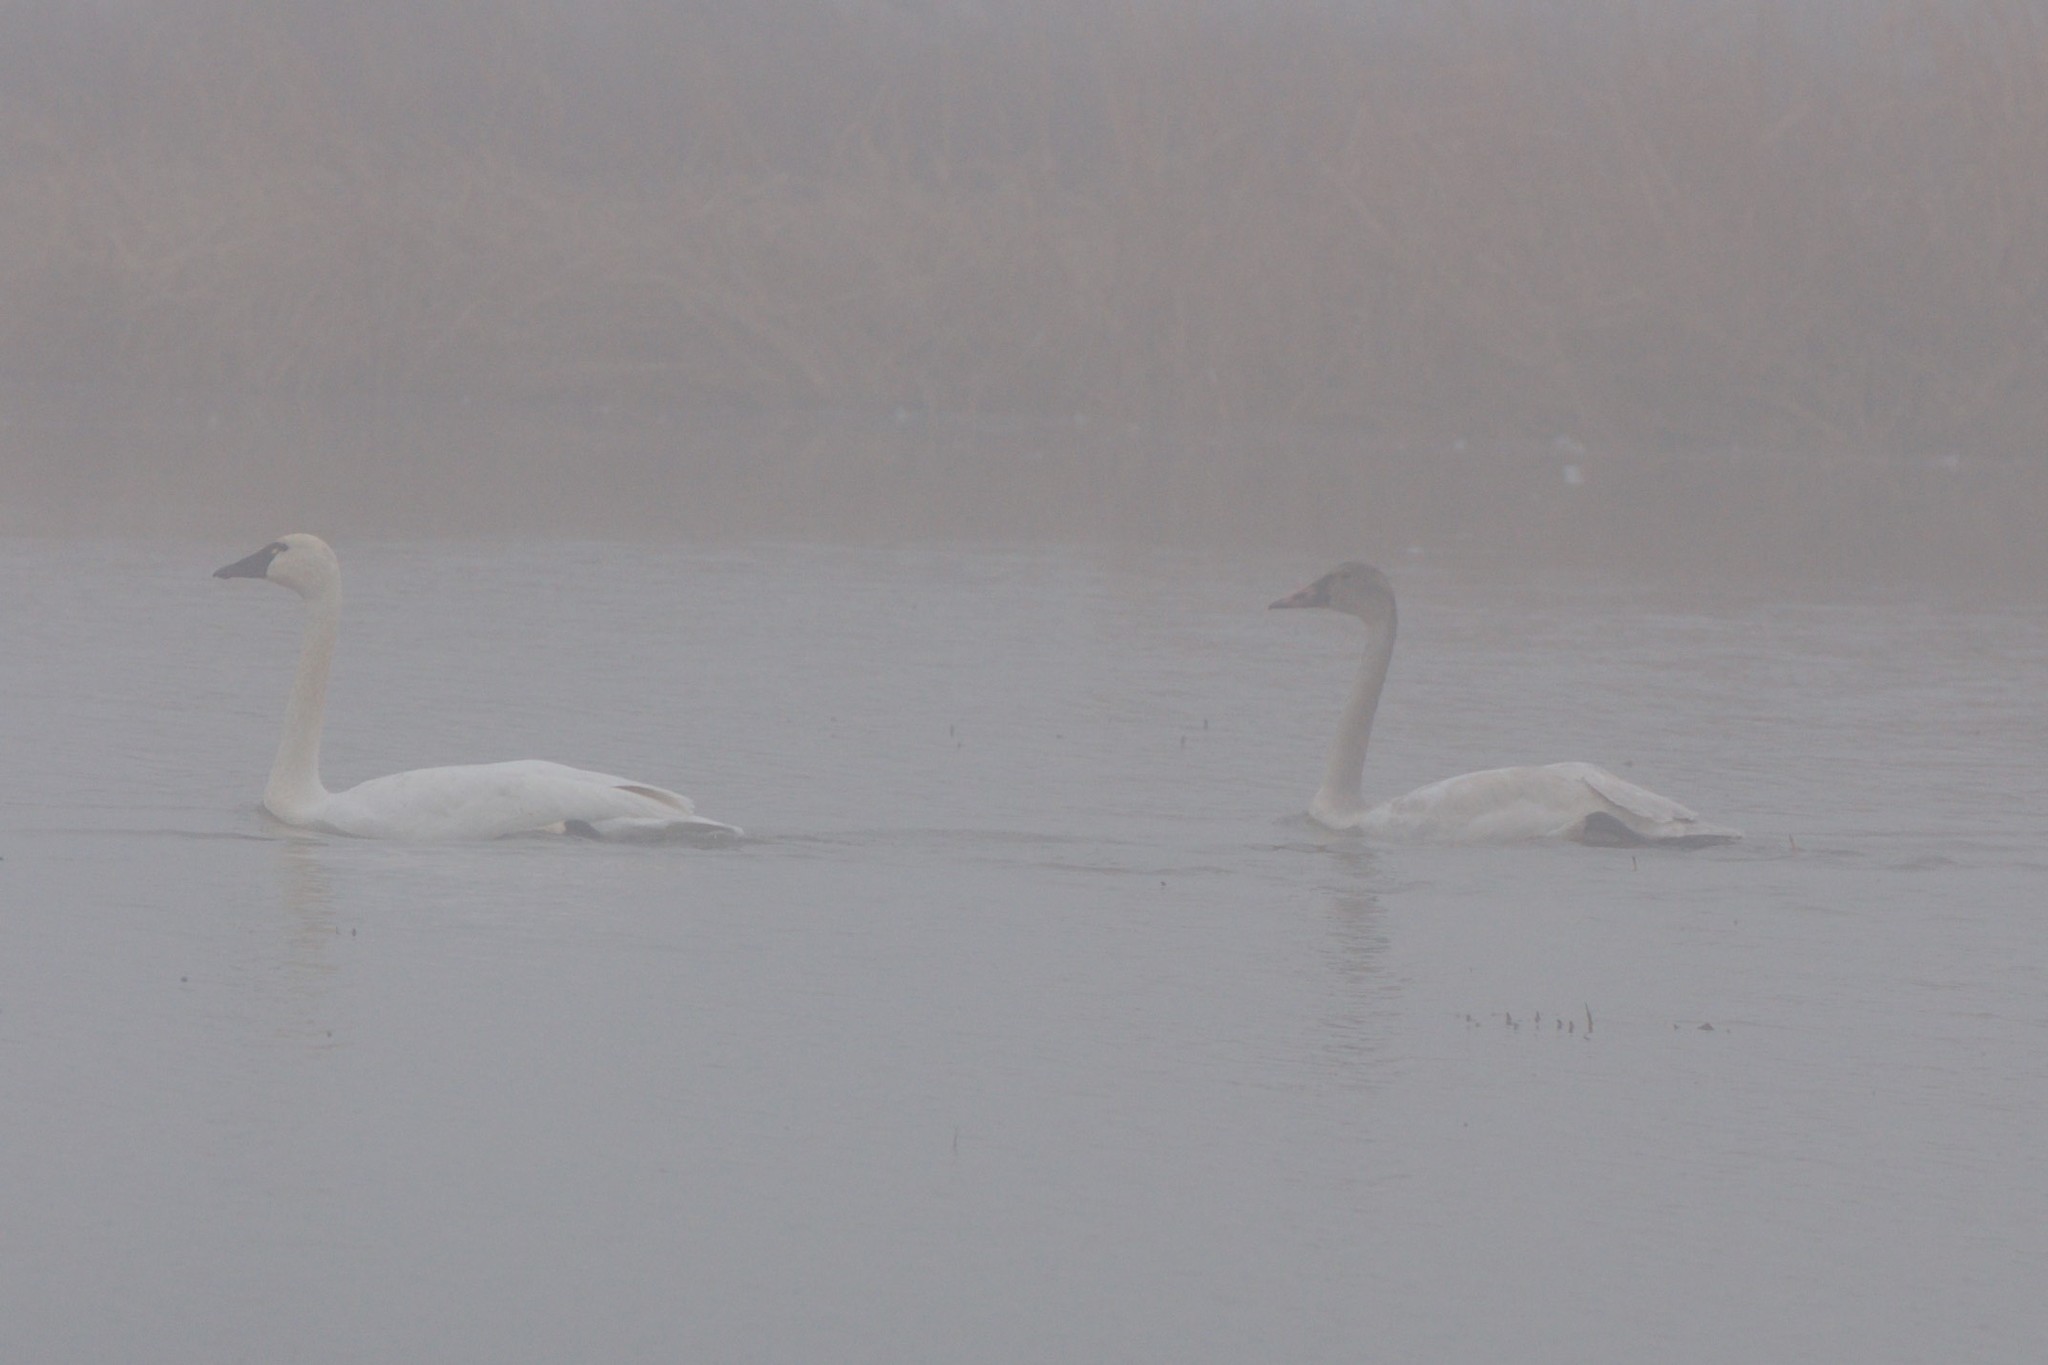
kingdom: Animalia
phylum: Chordata
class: Aves
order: Anseriformes
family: Anatidae
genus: Cygnus
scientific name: Cygnus columbianus
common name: Tundra swan
